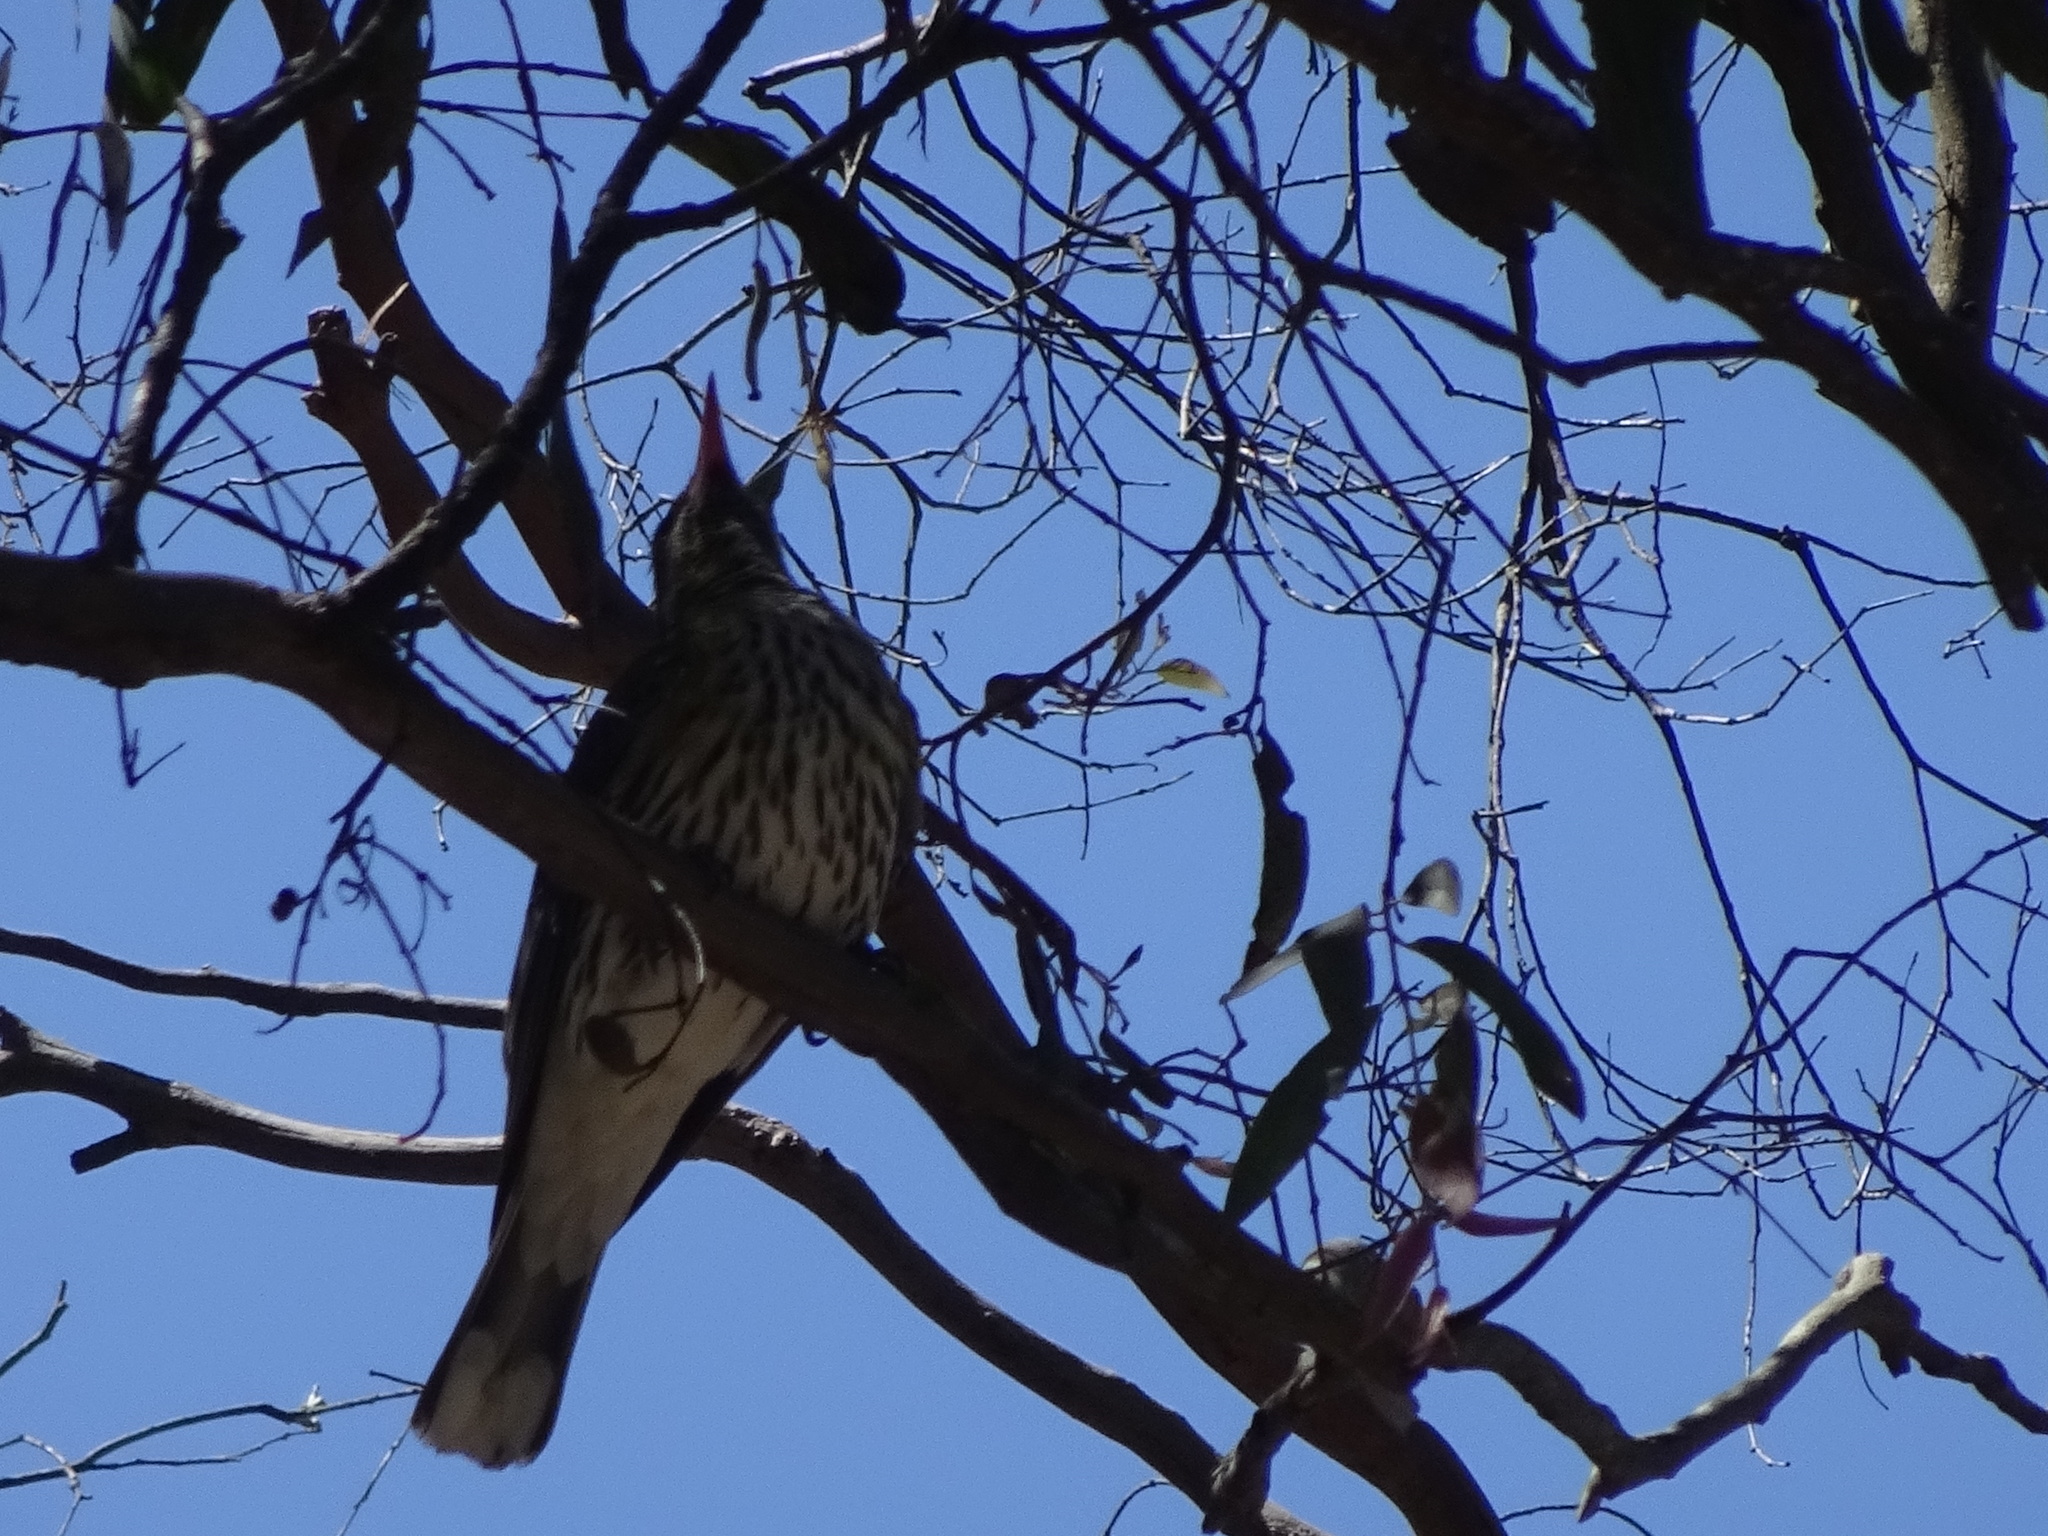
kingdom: Animalia
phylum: Chordata
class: Aves
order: Passeriformes
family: Oriolidae
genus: Oriolus
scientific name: Oriolus sagittatus
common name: Olive-backed oriole
